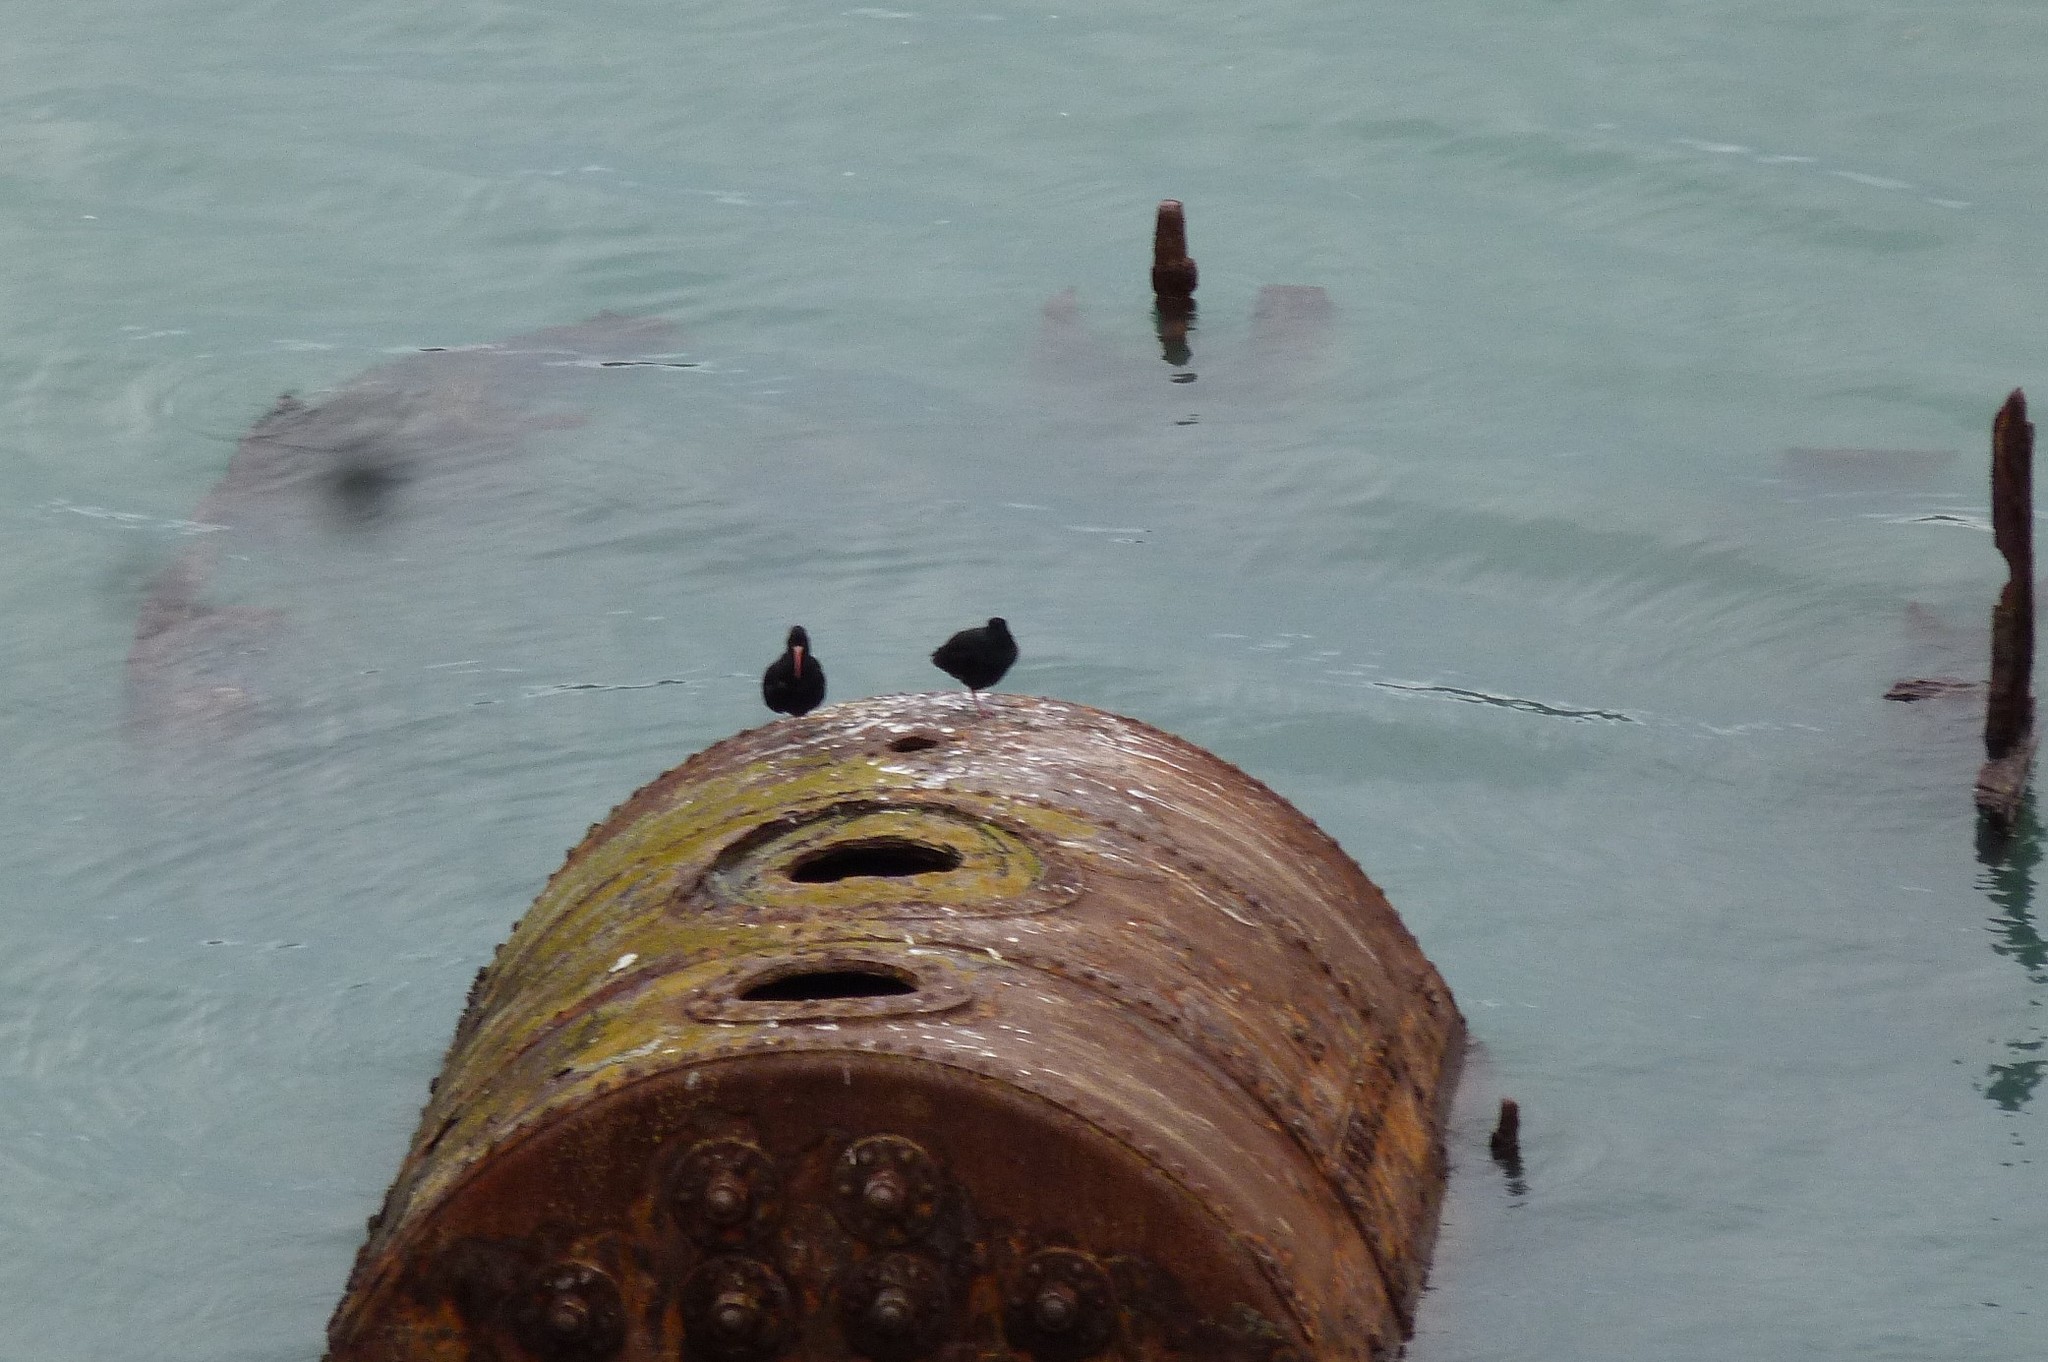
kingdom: Animalia
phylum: Chordata
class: Aves
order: Charadriiformes
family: Haematopodidae
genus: Haematopus
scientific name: Haematopus unicolor
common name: Variable oystercatcher
